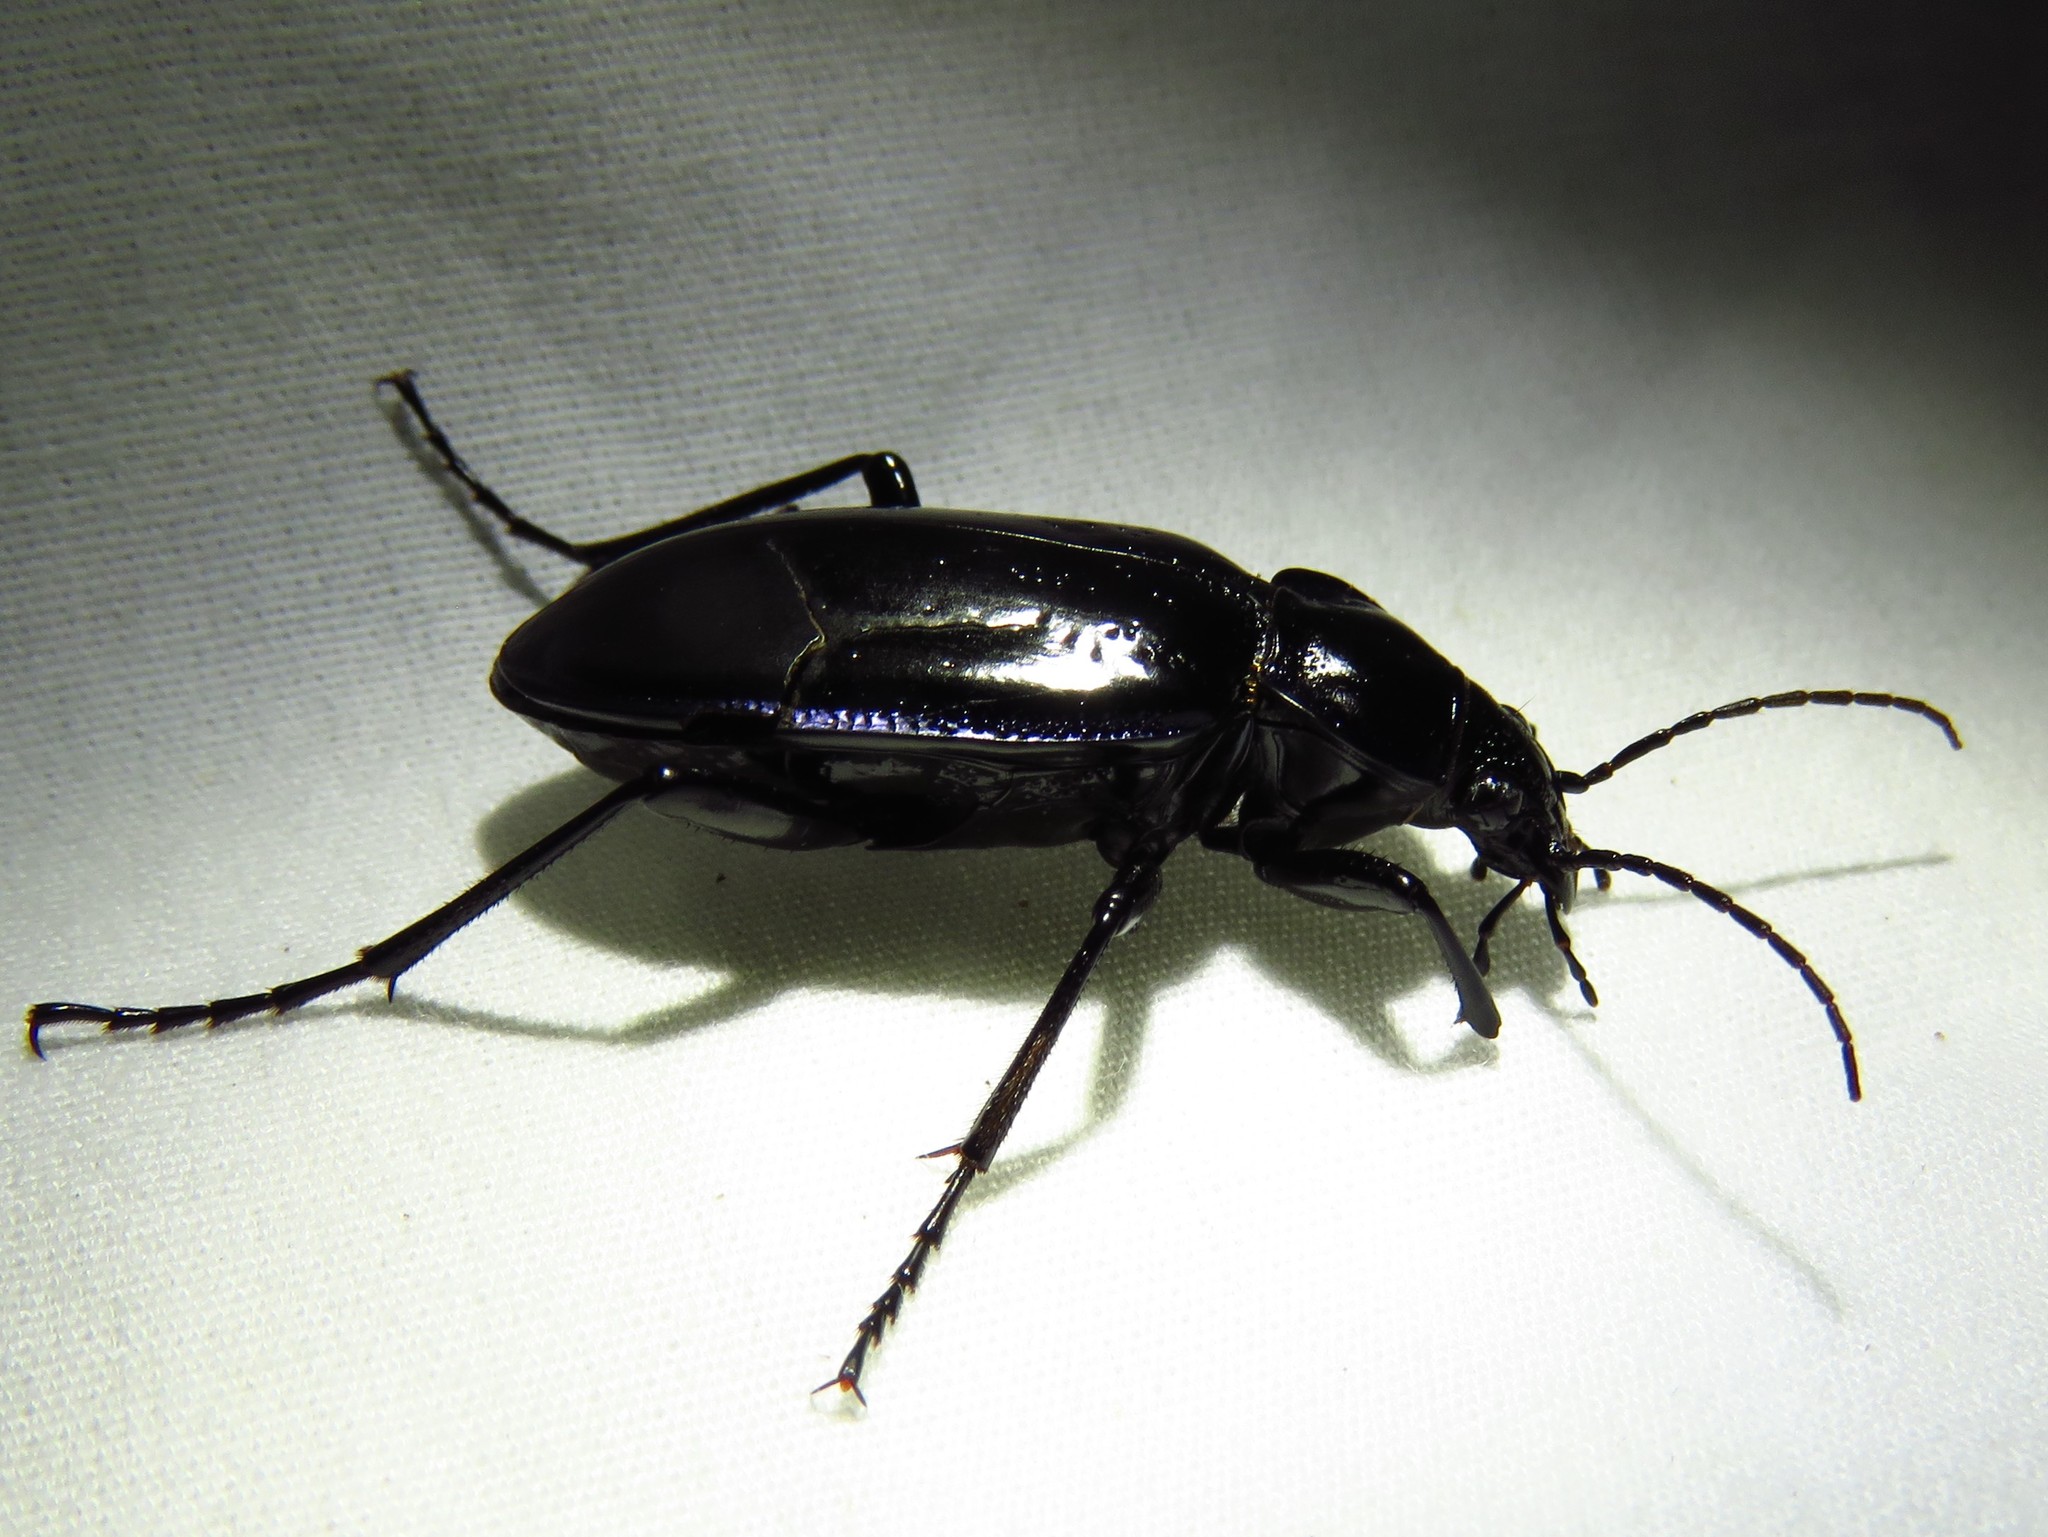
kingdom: Animalia
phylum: Arthropoda
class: Insecta
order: Coleoptera
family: Carabidae
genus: Calosoma
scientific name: Calosoma macrum
